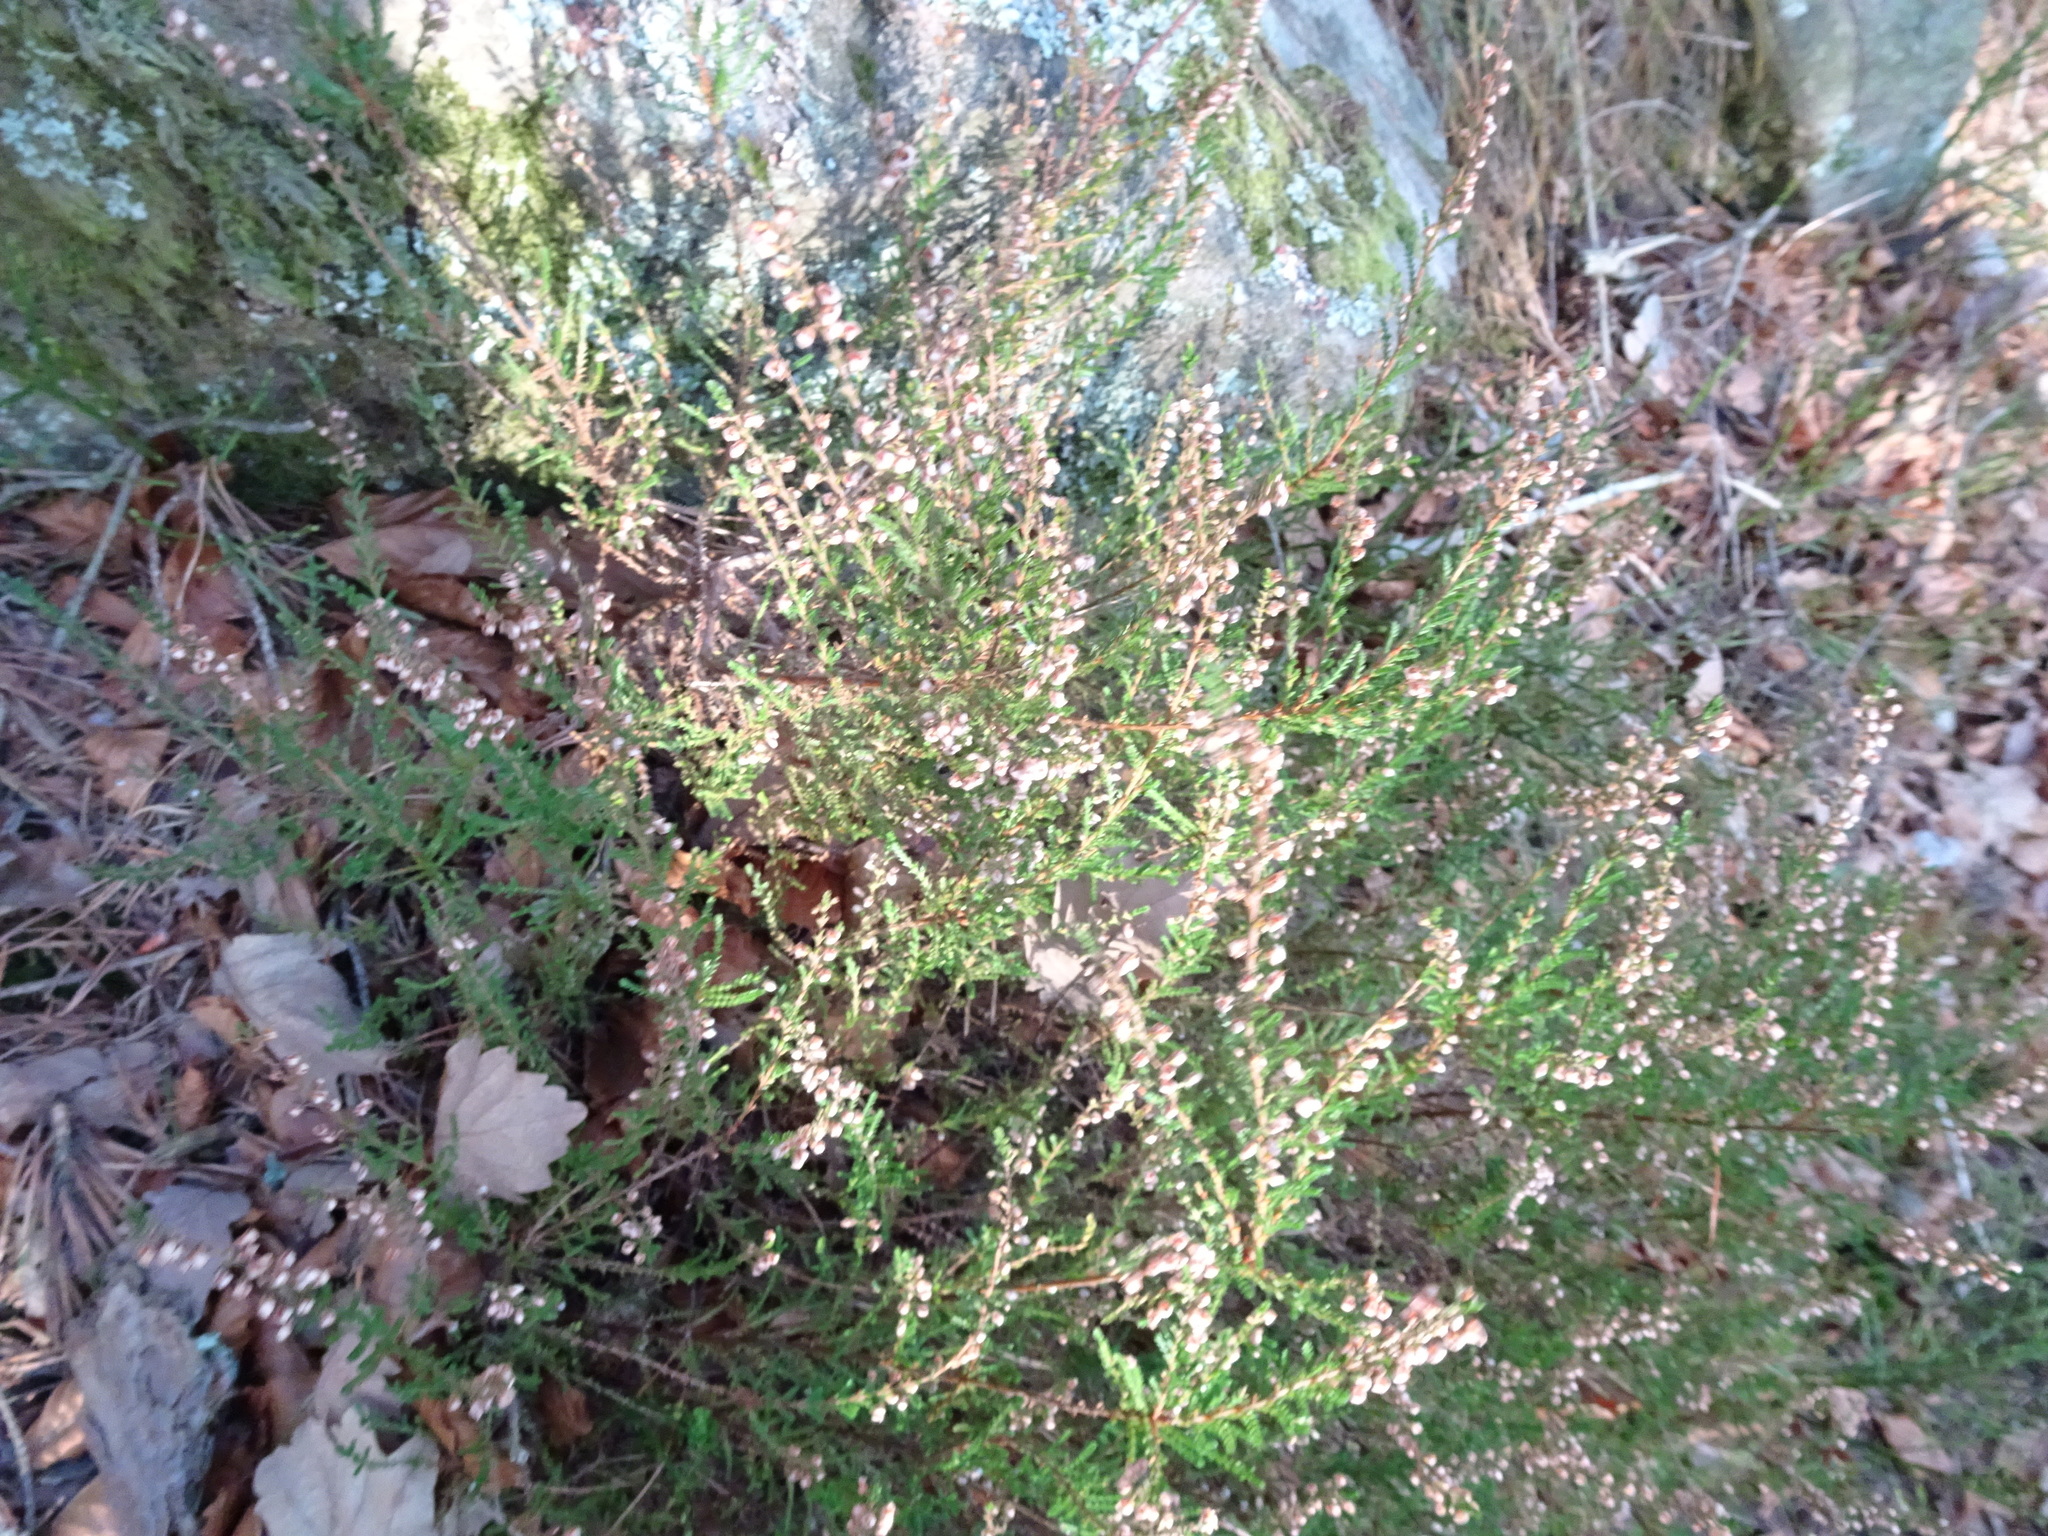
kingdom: Plantae
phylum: Tracheophyta
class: Magnoliopsida
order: Ericales
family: Ericaceae
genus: Calluna
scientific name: Calluna vulgaris
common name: Heather
